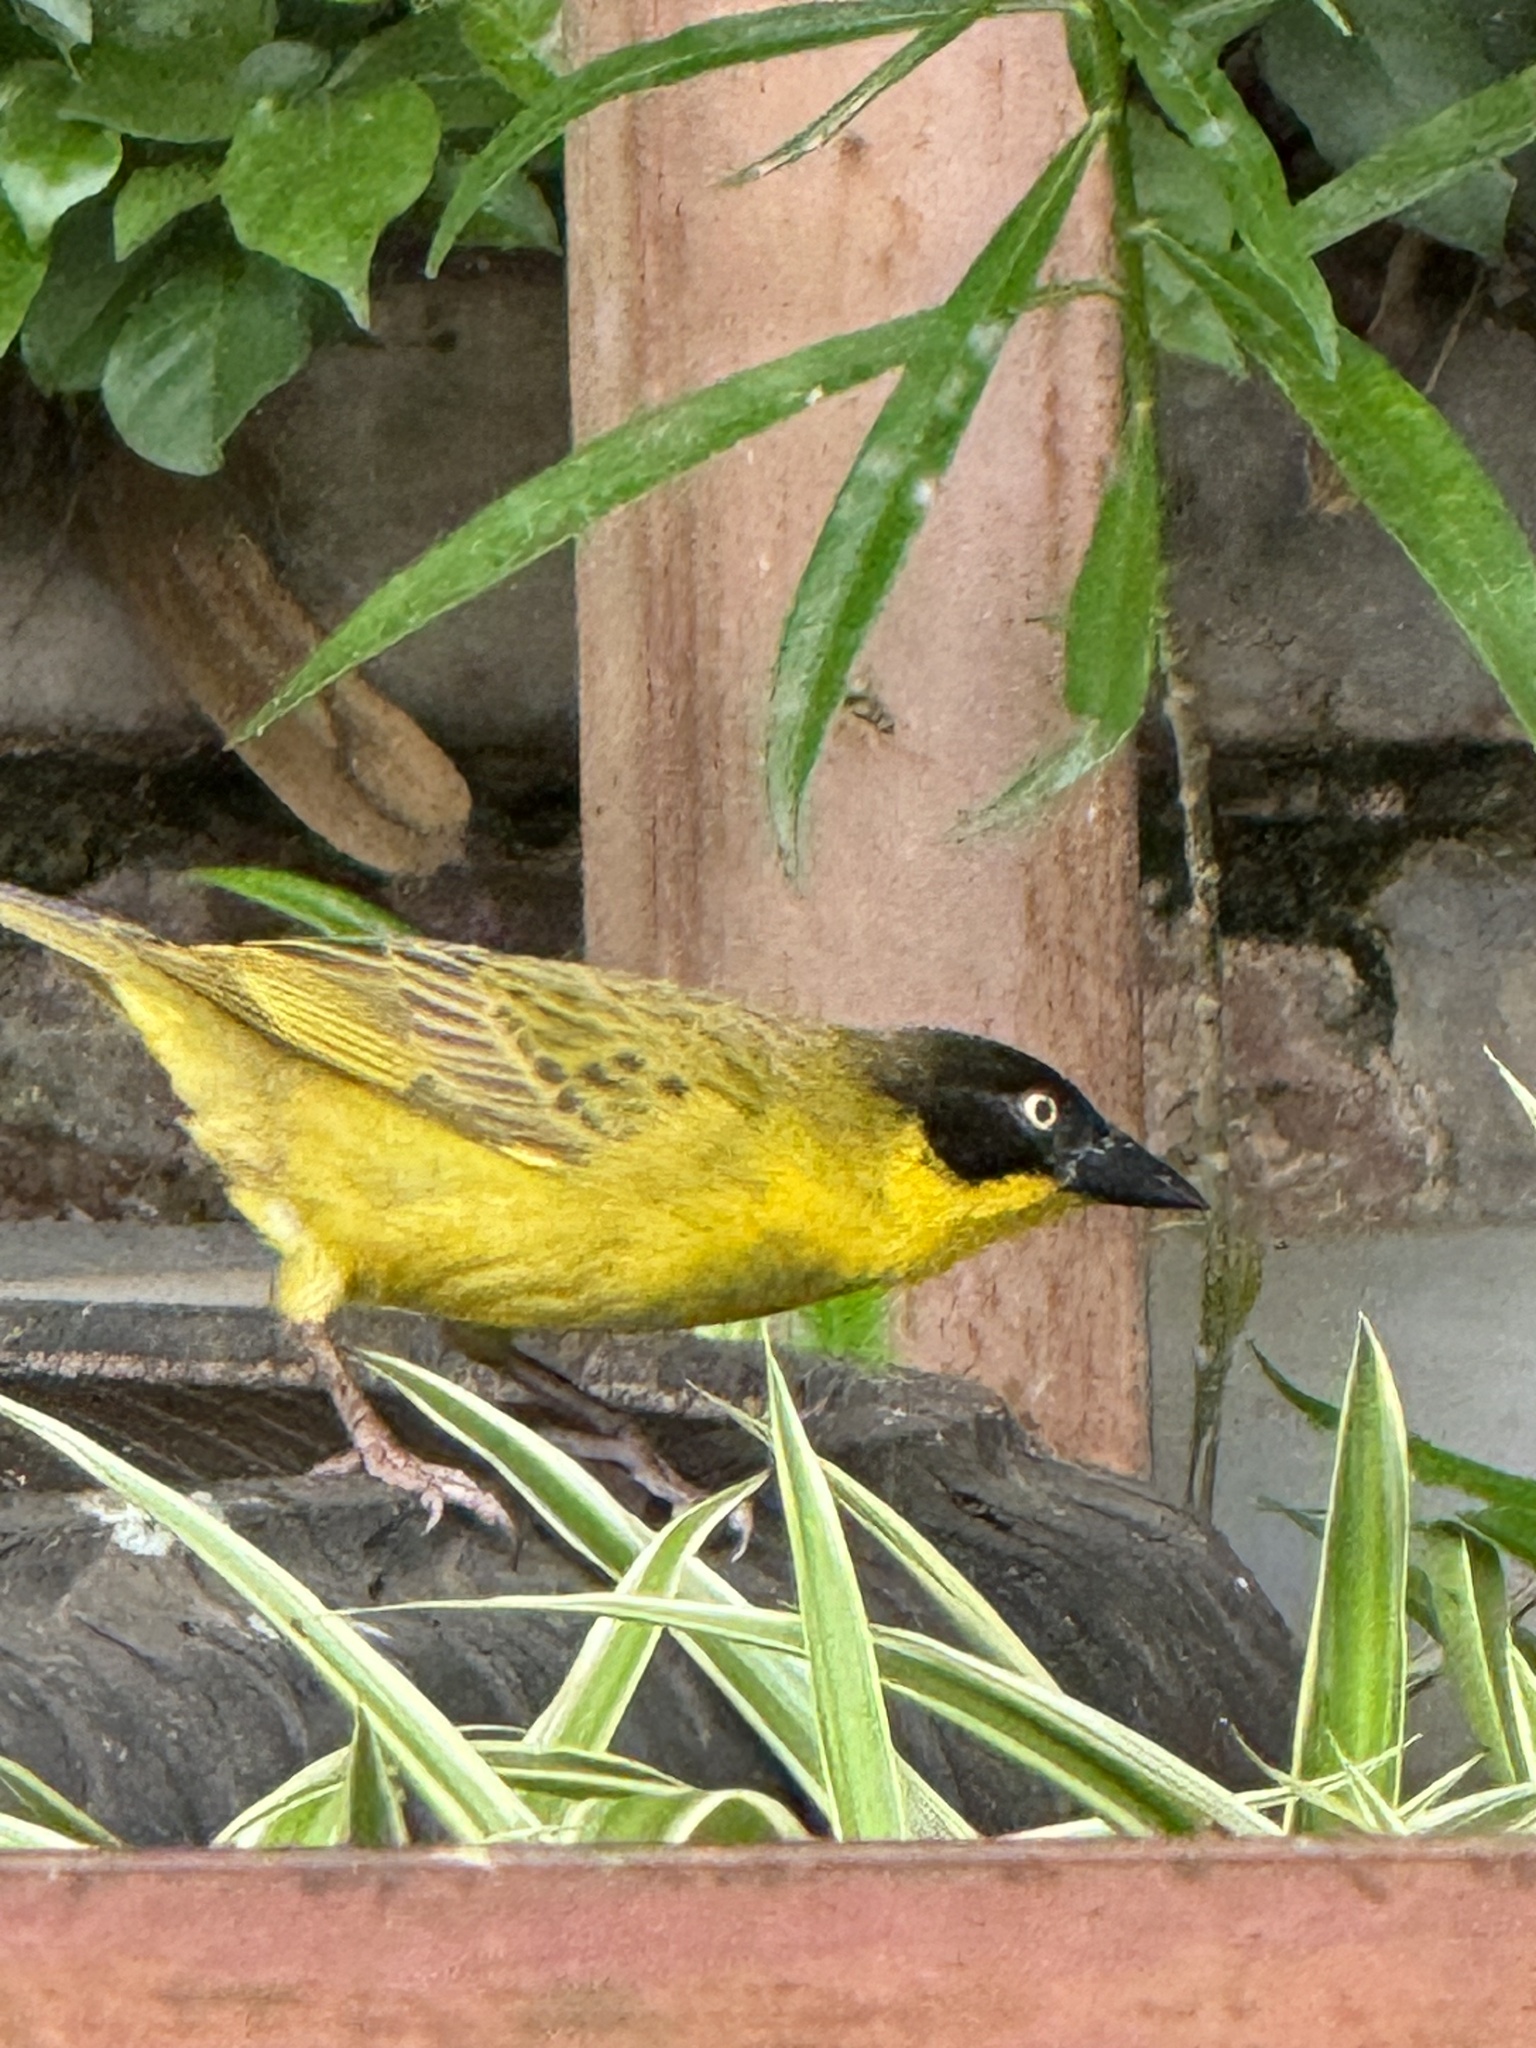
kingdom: Animalia
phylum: Chordata
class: Aves
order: Passeriformes
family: Ploceidae
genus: Ploceus
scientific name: Ploceus baglafecht
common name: Baglafecht weaver
